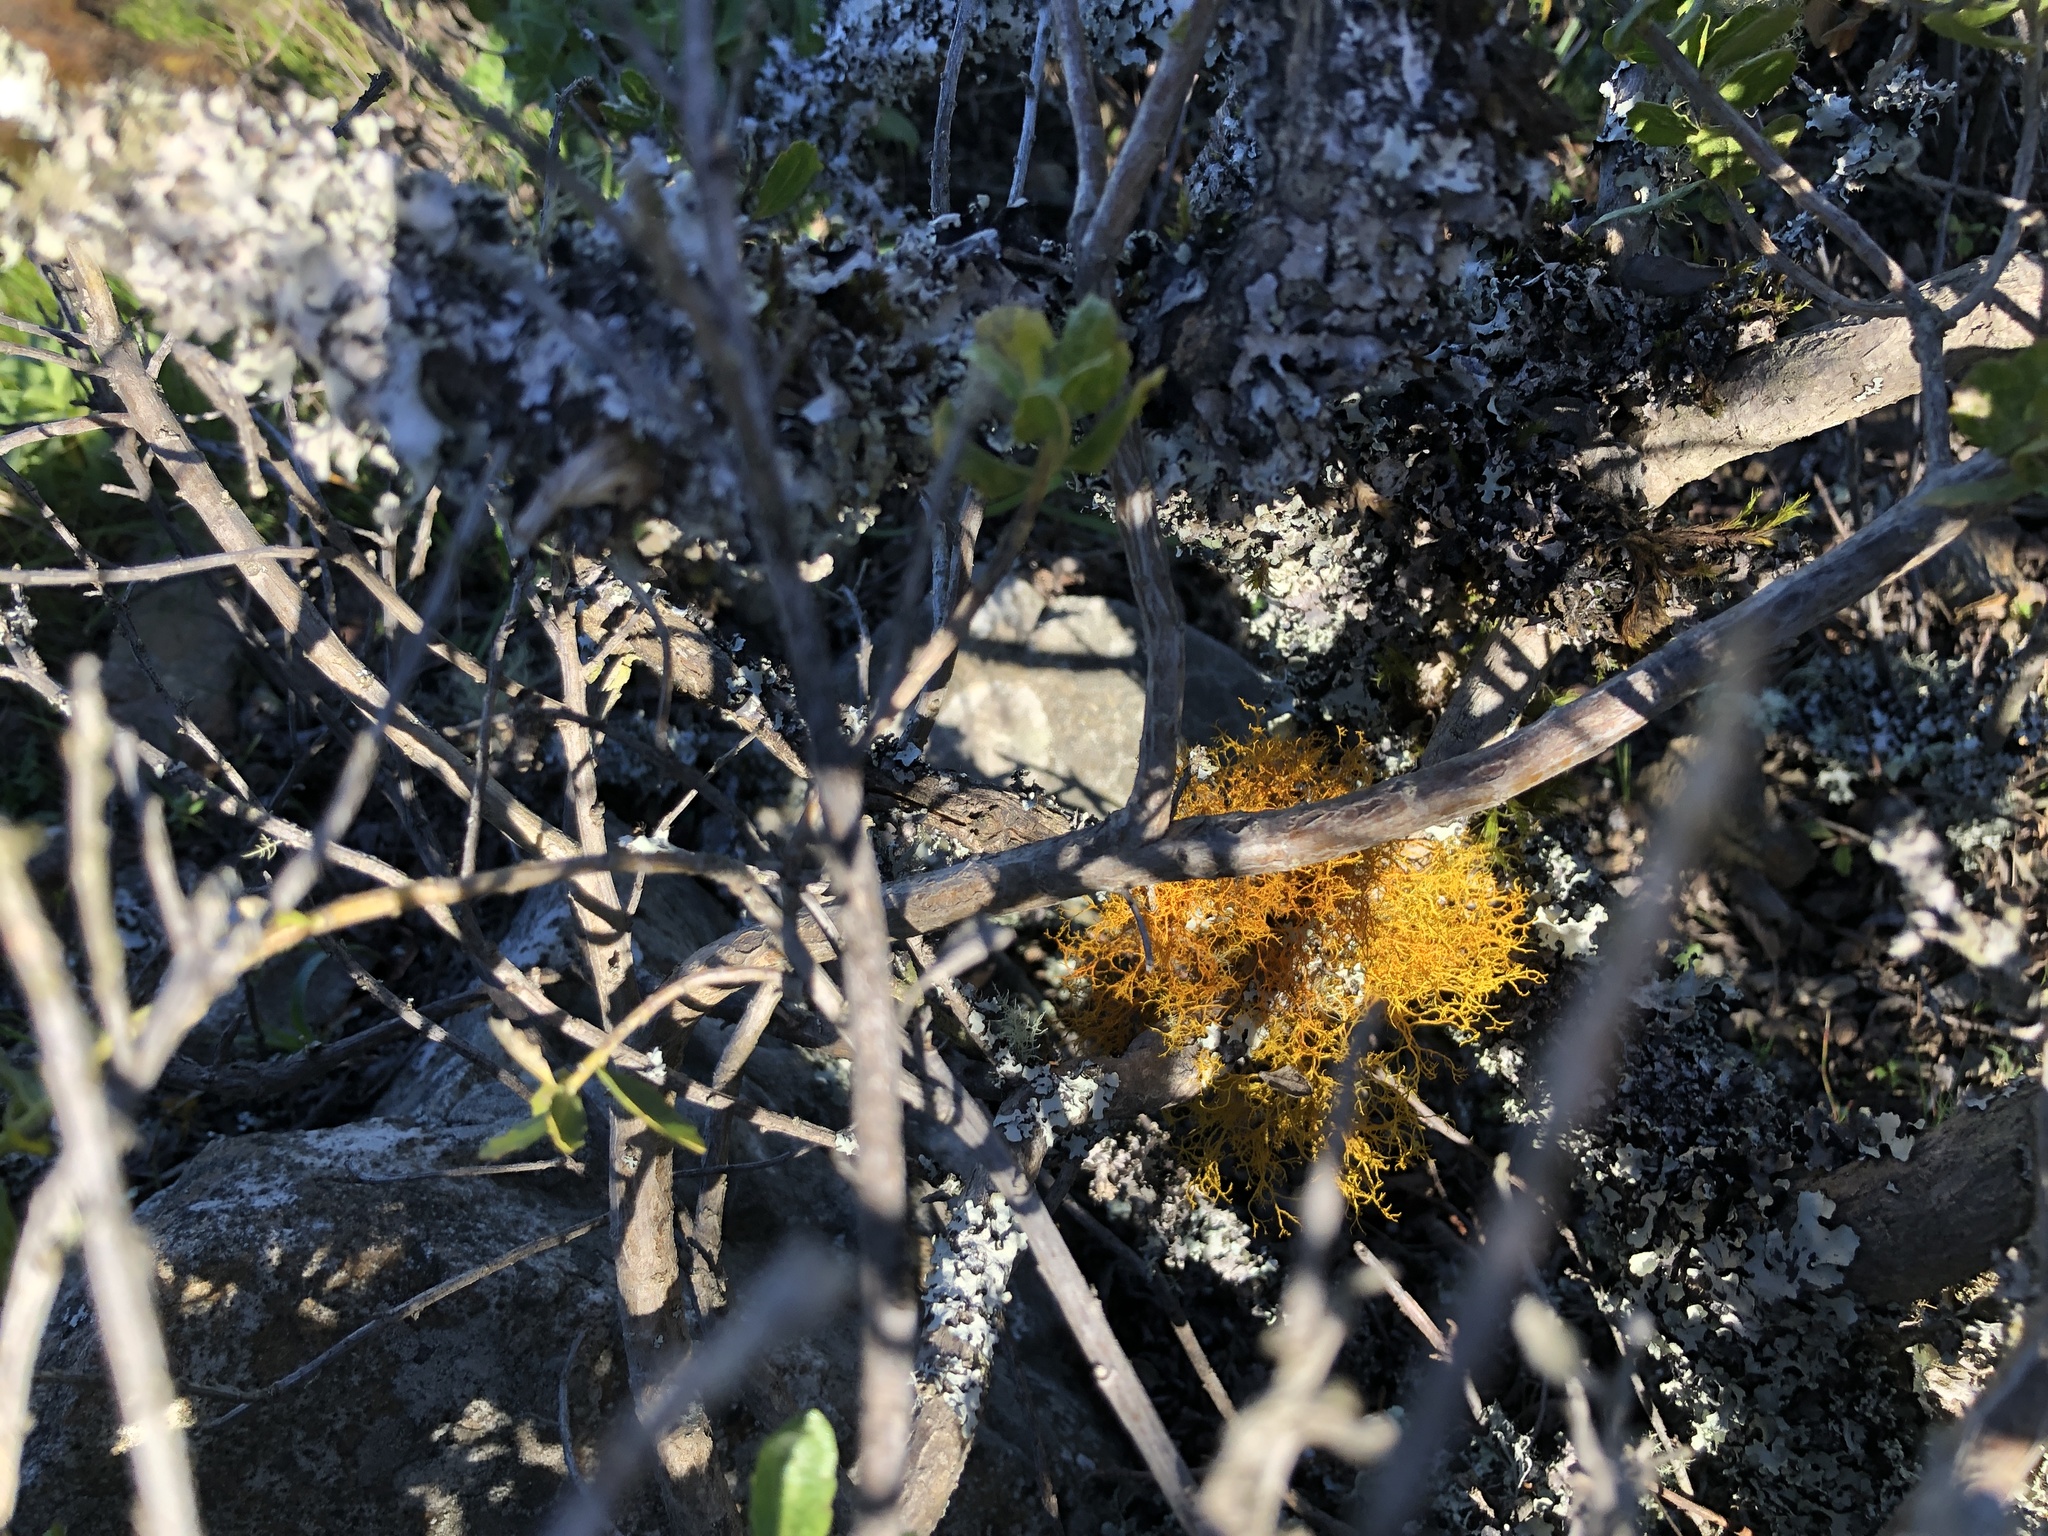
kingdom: Fungi
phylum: Ascomycota
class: Lecanoromycetes
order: Teloschistales
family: Teloschistaceae
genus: Teloschistes
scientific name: Teloschistes flavicans
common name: Golden hair-lichen
